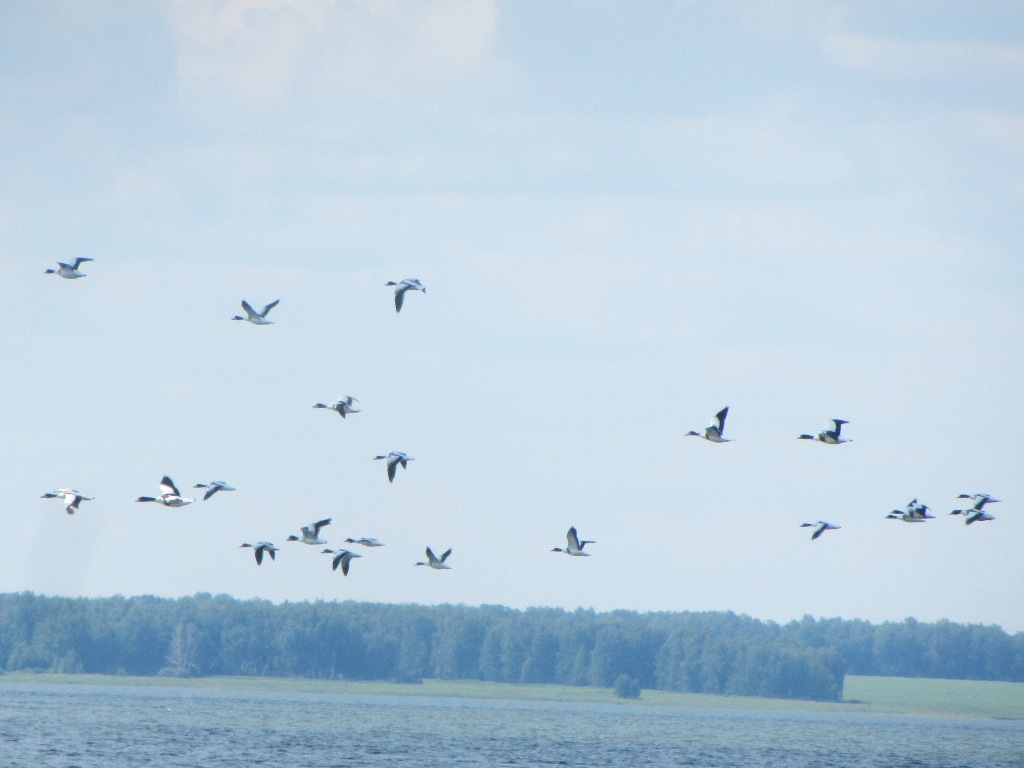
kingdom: Animalia
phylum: Chordata
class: Aves
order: Anseriformes
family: Anatidae
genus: Tadorna
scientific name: Tadorna tadorna
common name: Common shelduck
